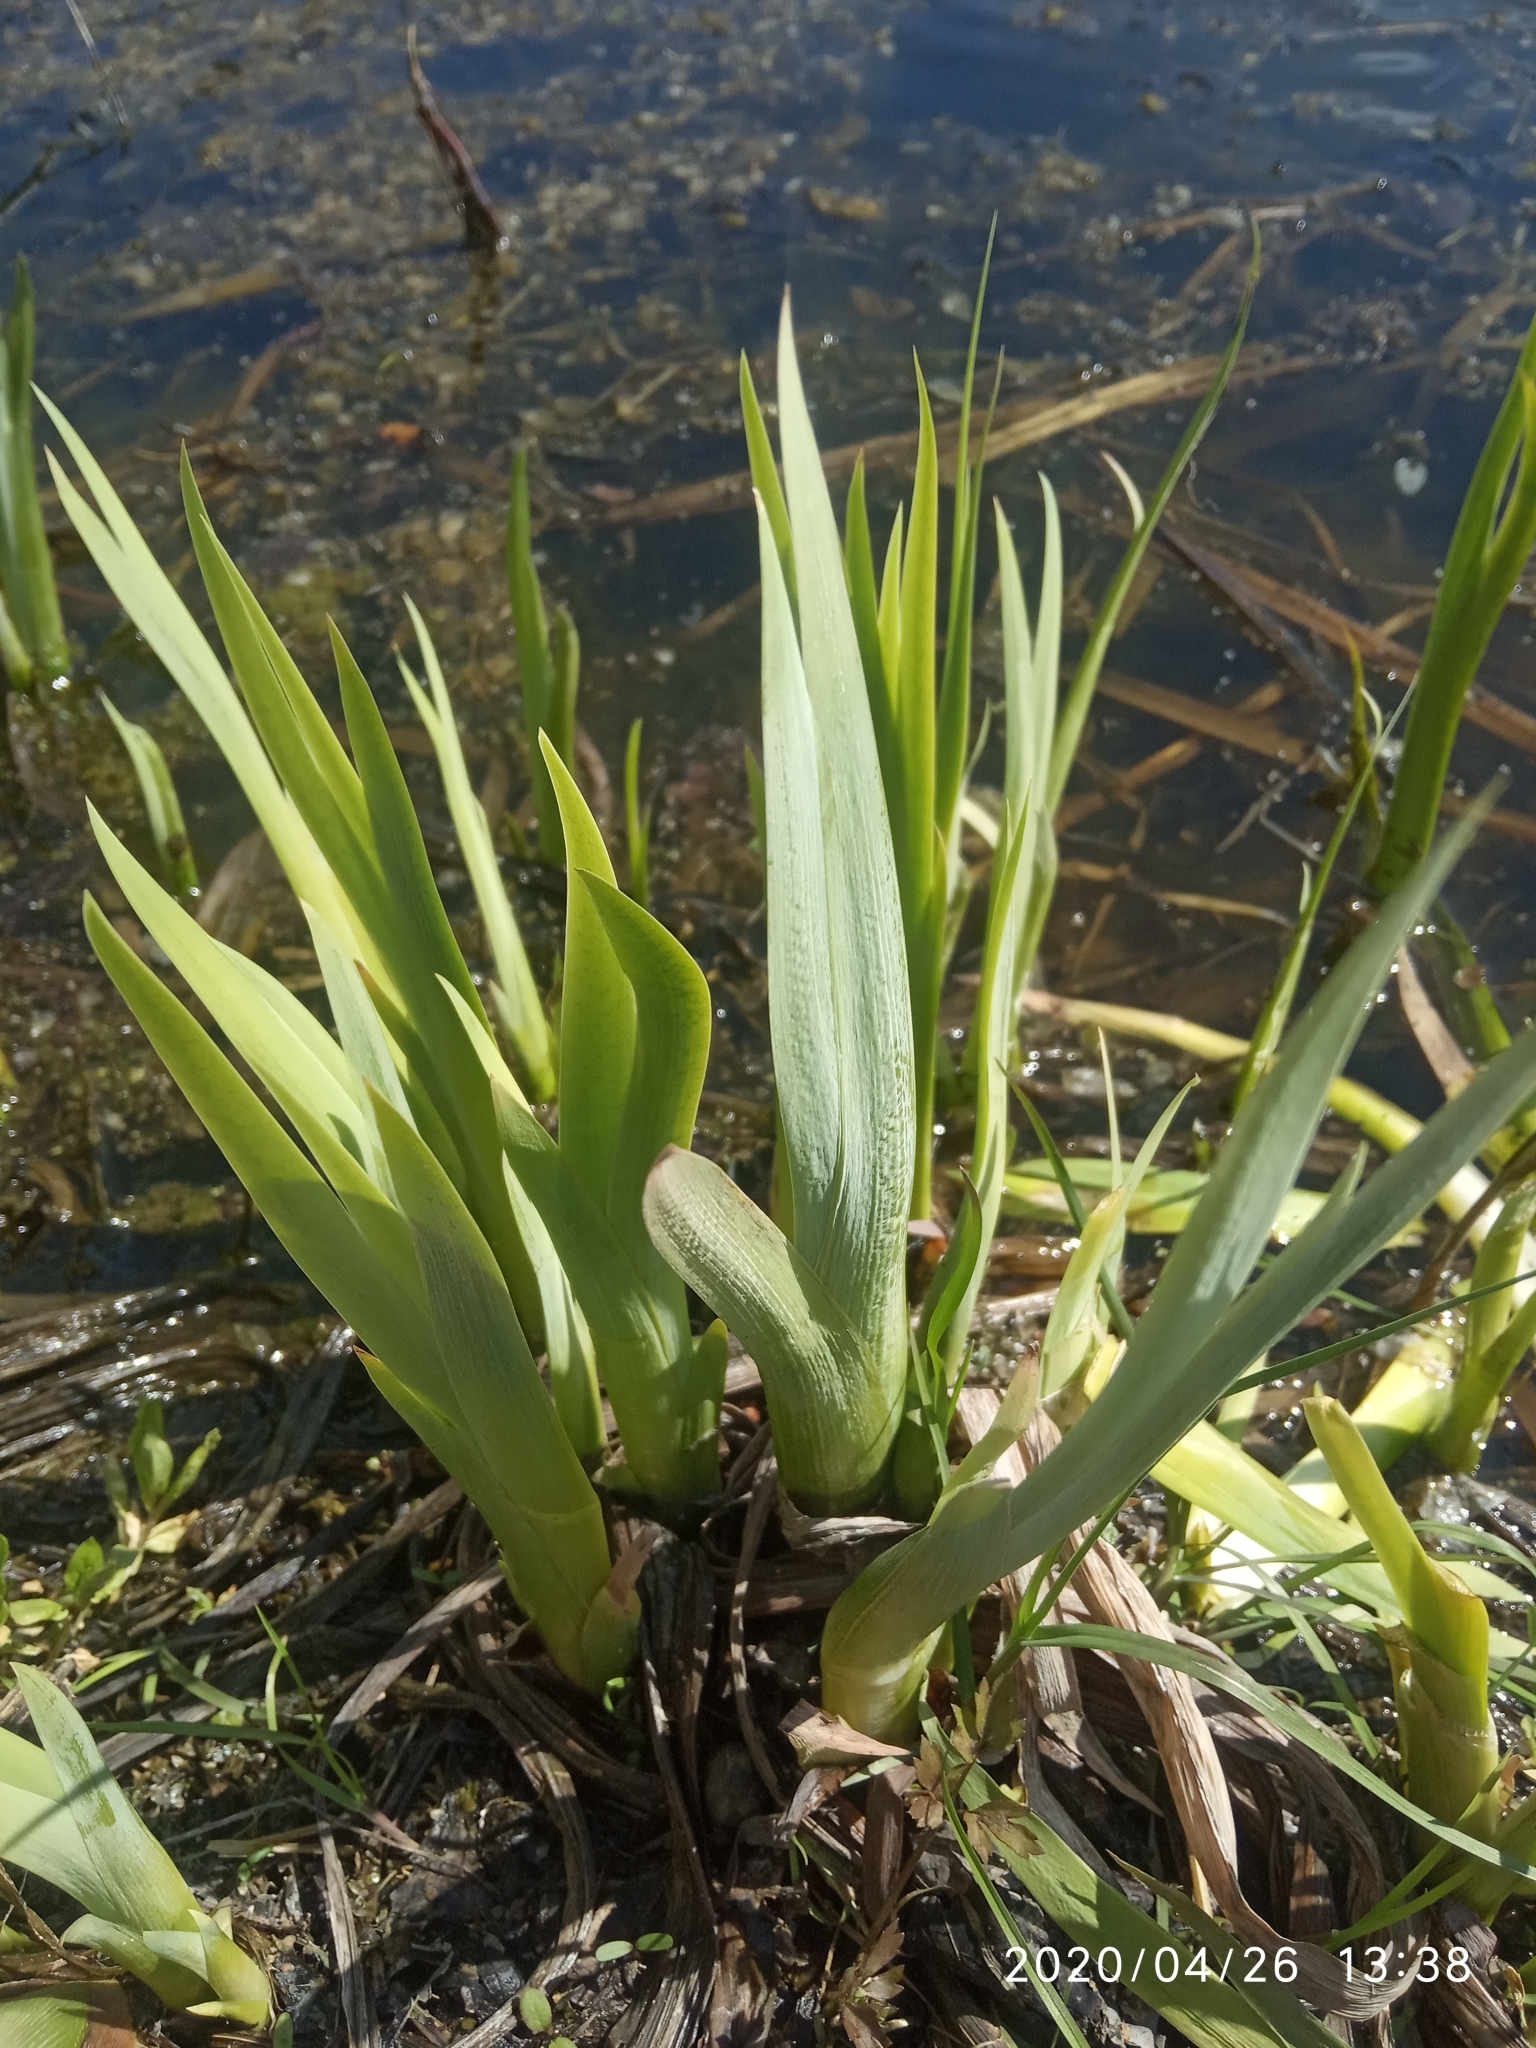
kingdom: Plantae
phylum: Tracheophyta
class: Liliopsida
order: Asparagales
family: Iridaceae
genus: Iris
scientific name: Iris pseudacorus
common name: Yellow flag
